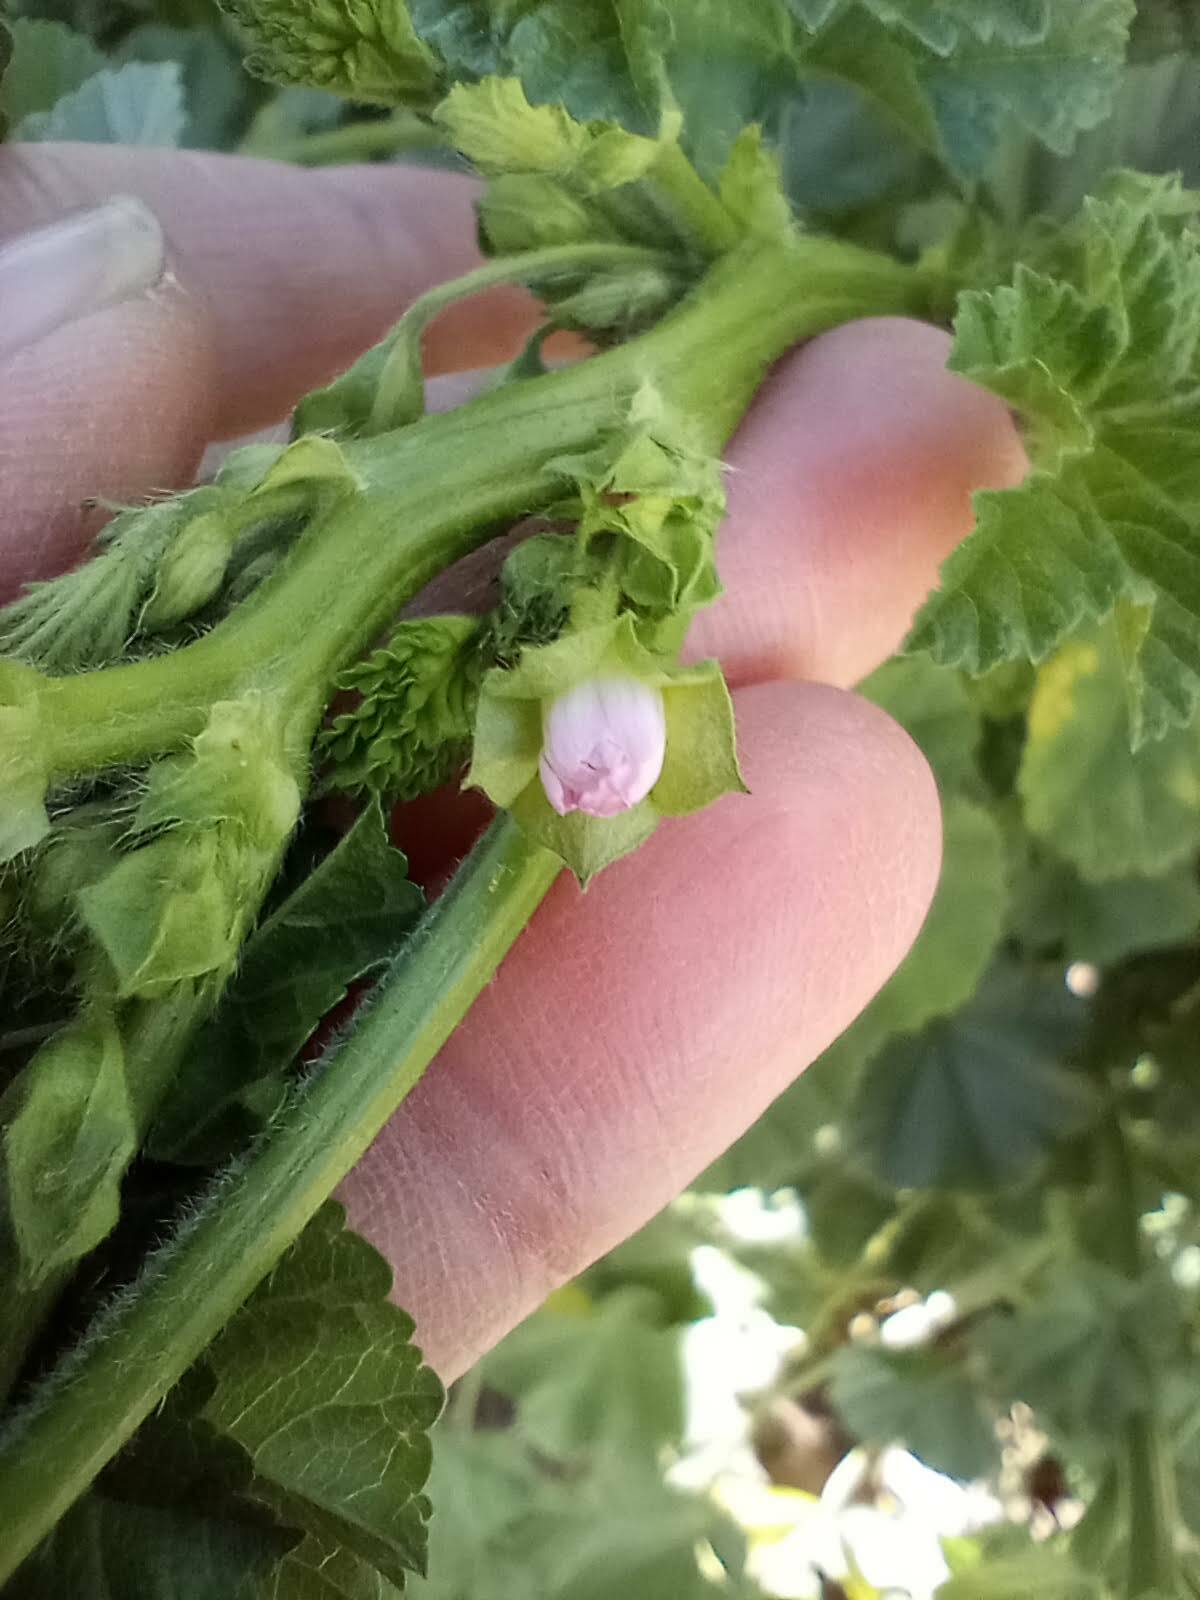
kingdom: Plantae
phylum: Tracheophyta
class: Magnoliopsida
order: Malvales
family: Malvaceae
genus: Malva
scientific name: Malva parviflora
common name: Least mallow
